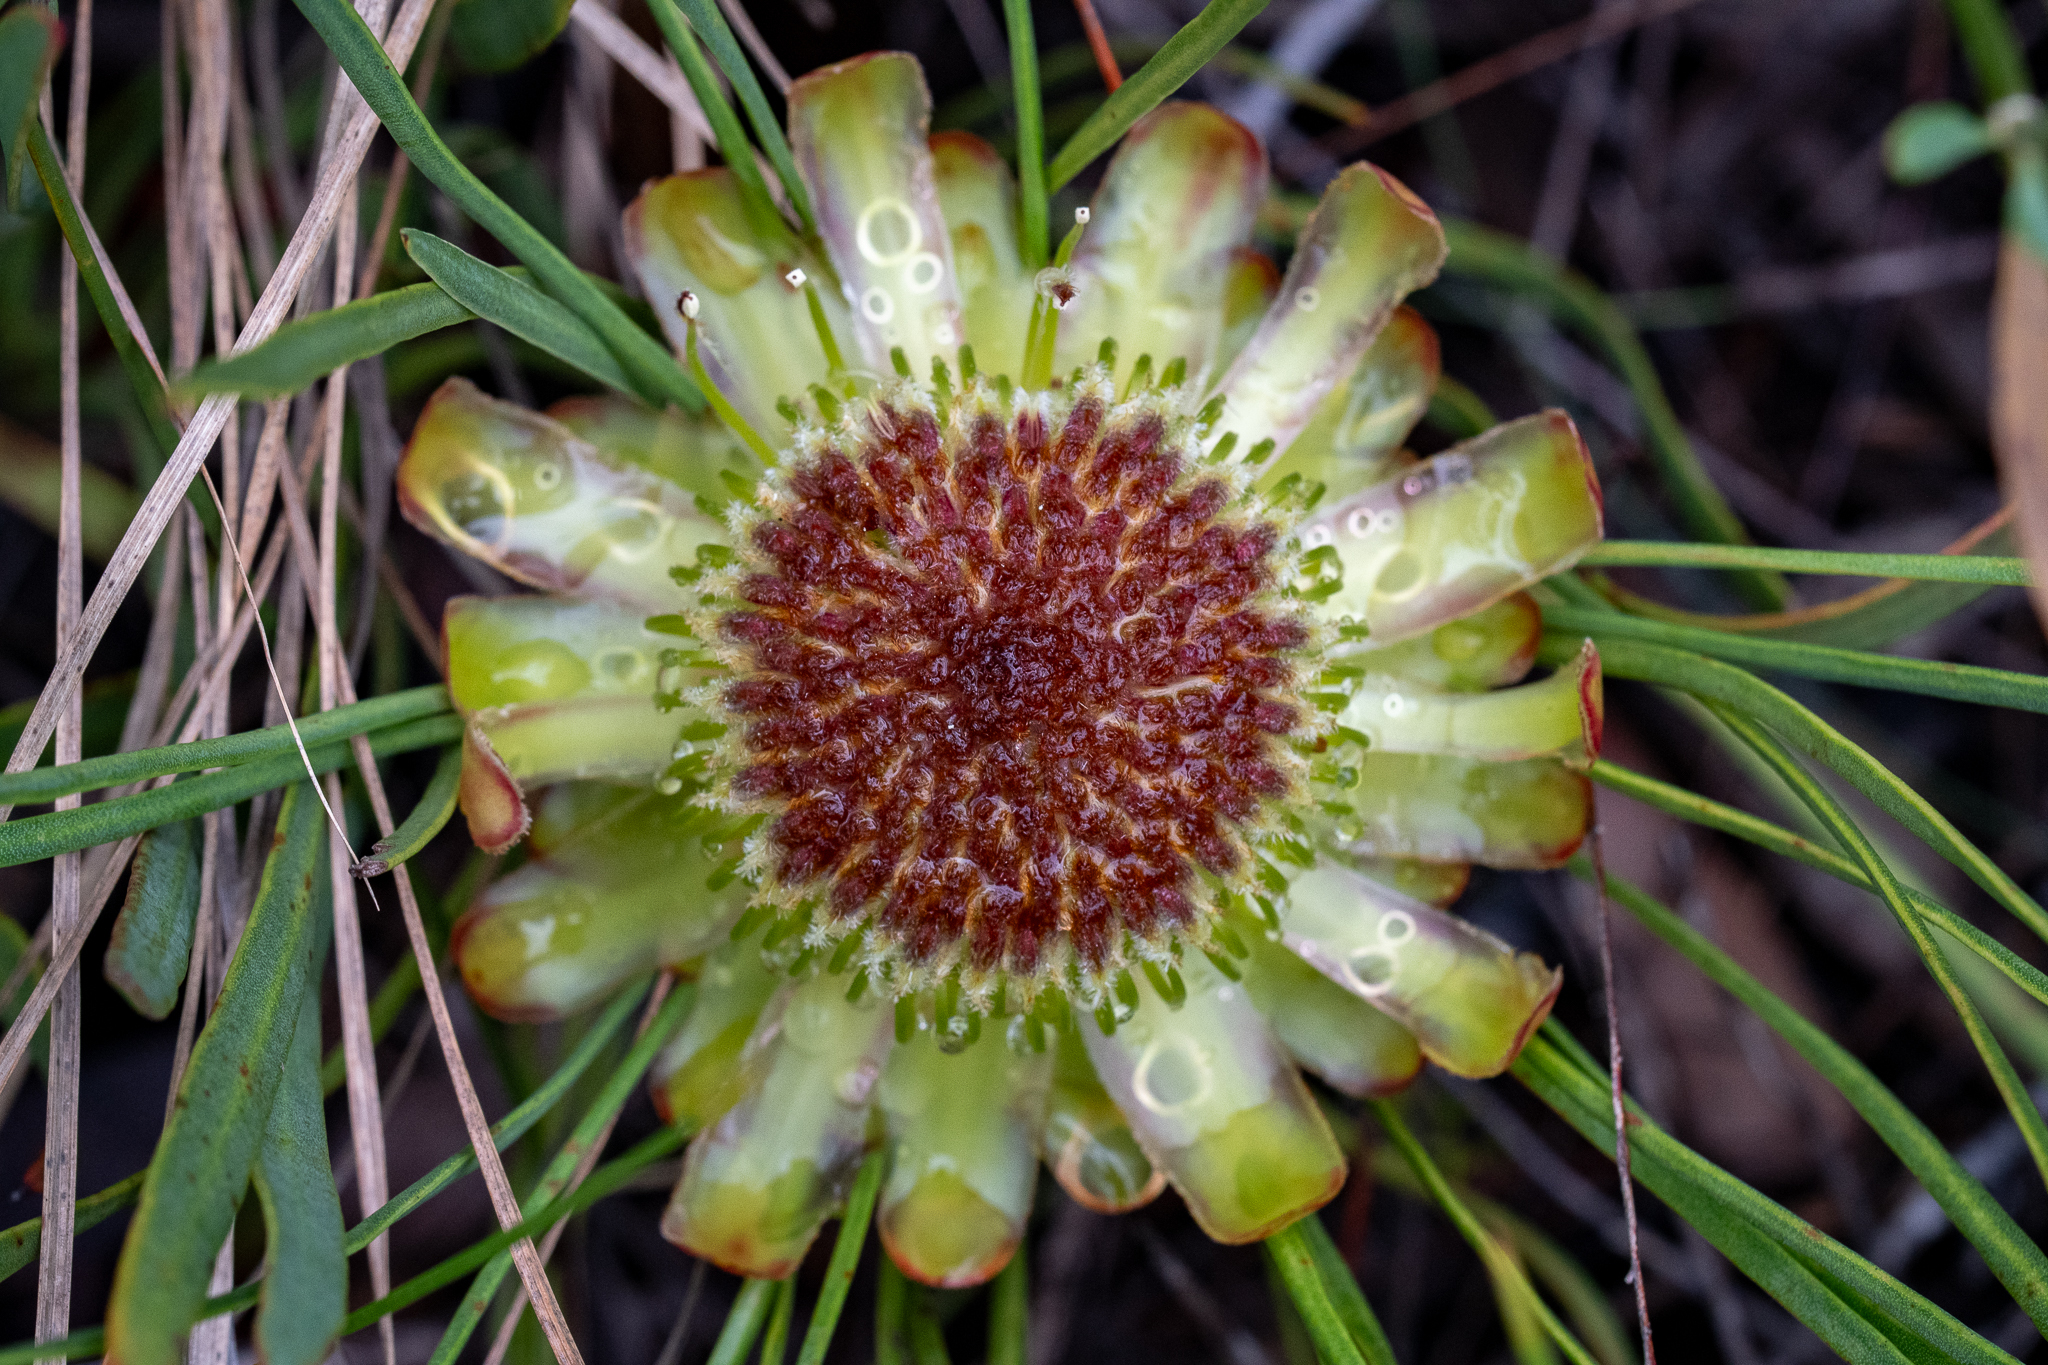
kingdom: Plantae
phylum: Tracheophyta
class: Magnoliopsida
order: Proteales
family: Proteaceae
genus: Protea
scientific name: Protea angustata
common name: Kleinmond sugarbush
